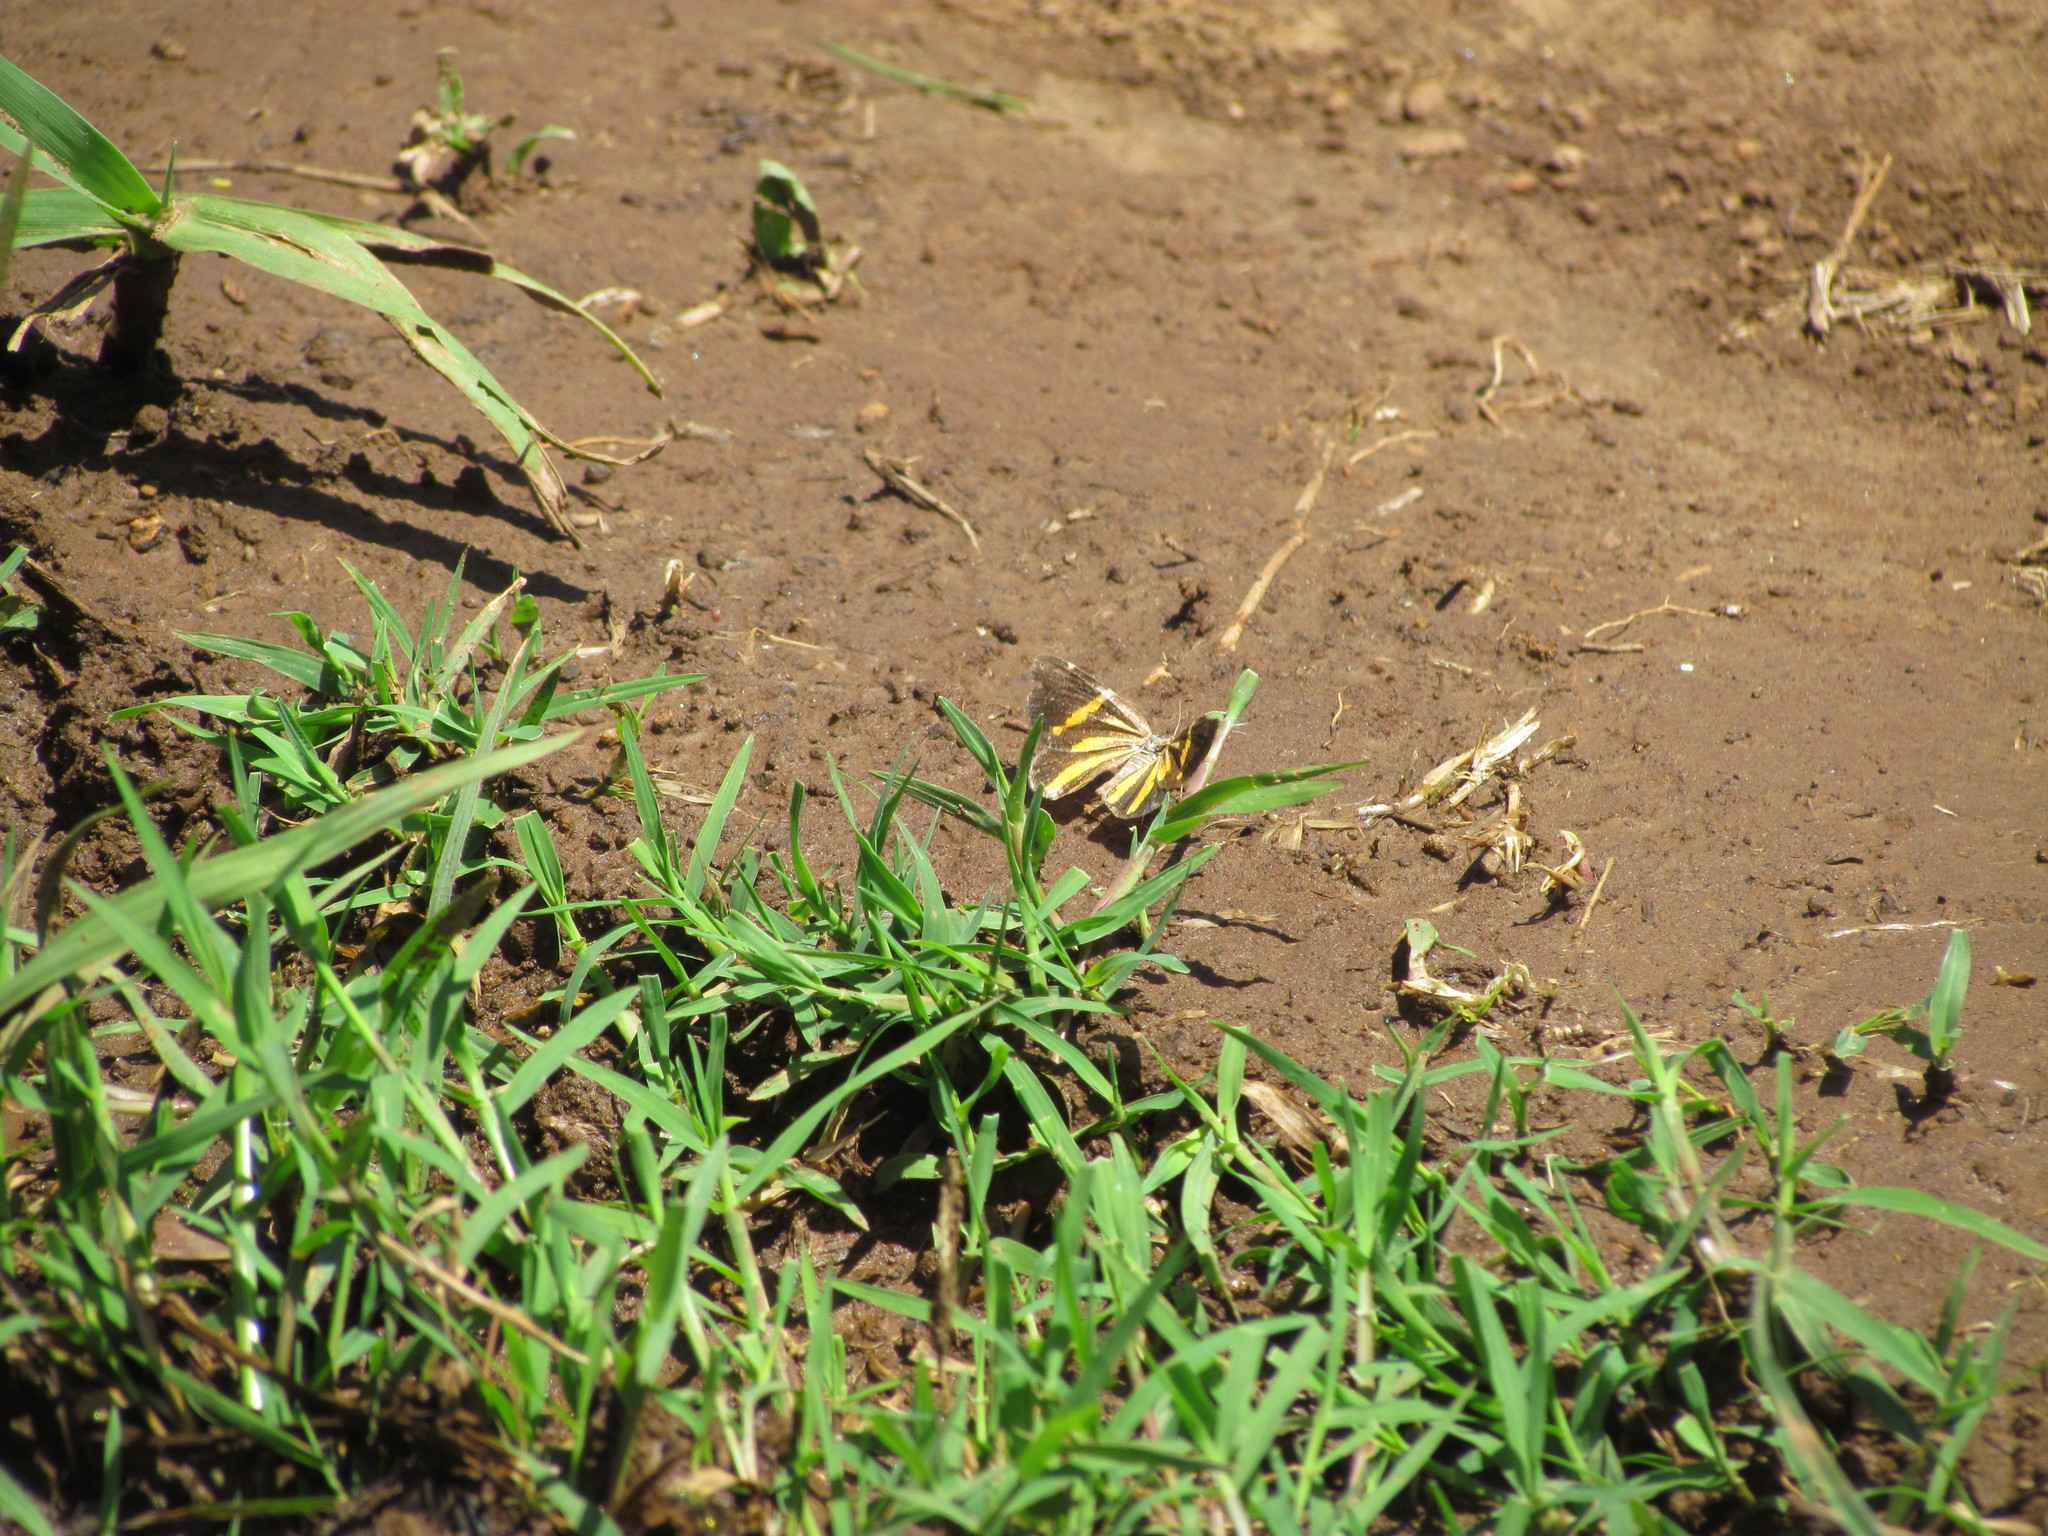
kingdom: Animalia
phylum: Arthropoda
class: Insecta
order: Lepidoptera
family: Geometridae
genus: Heterusia
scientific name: Heterusia quadruplicaria
